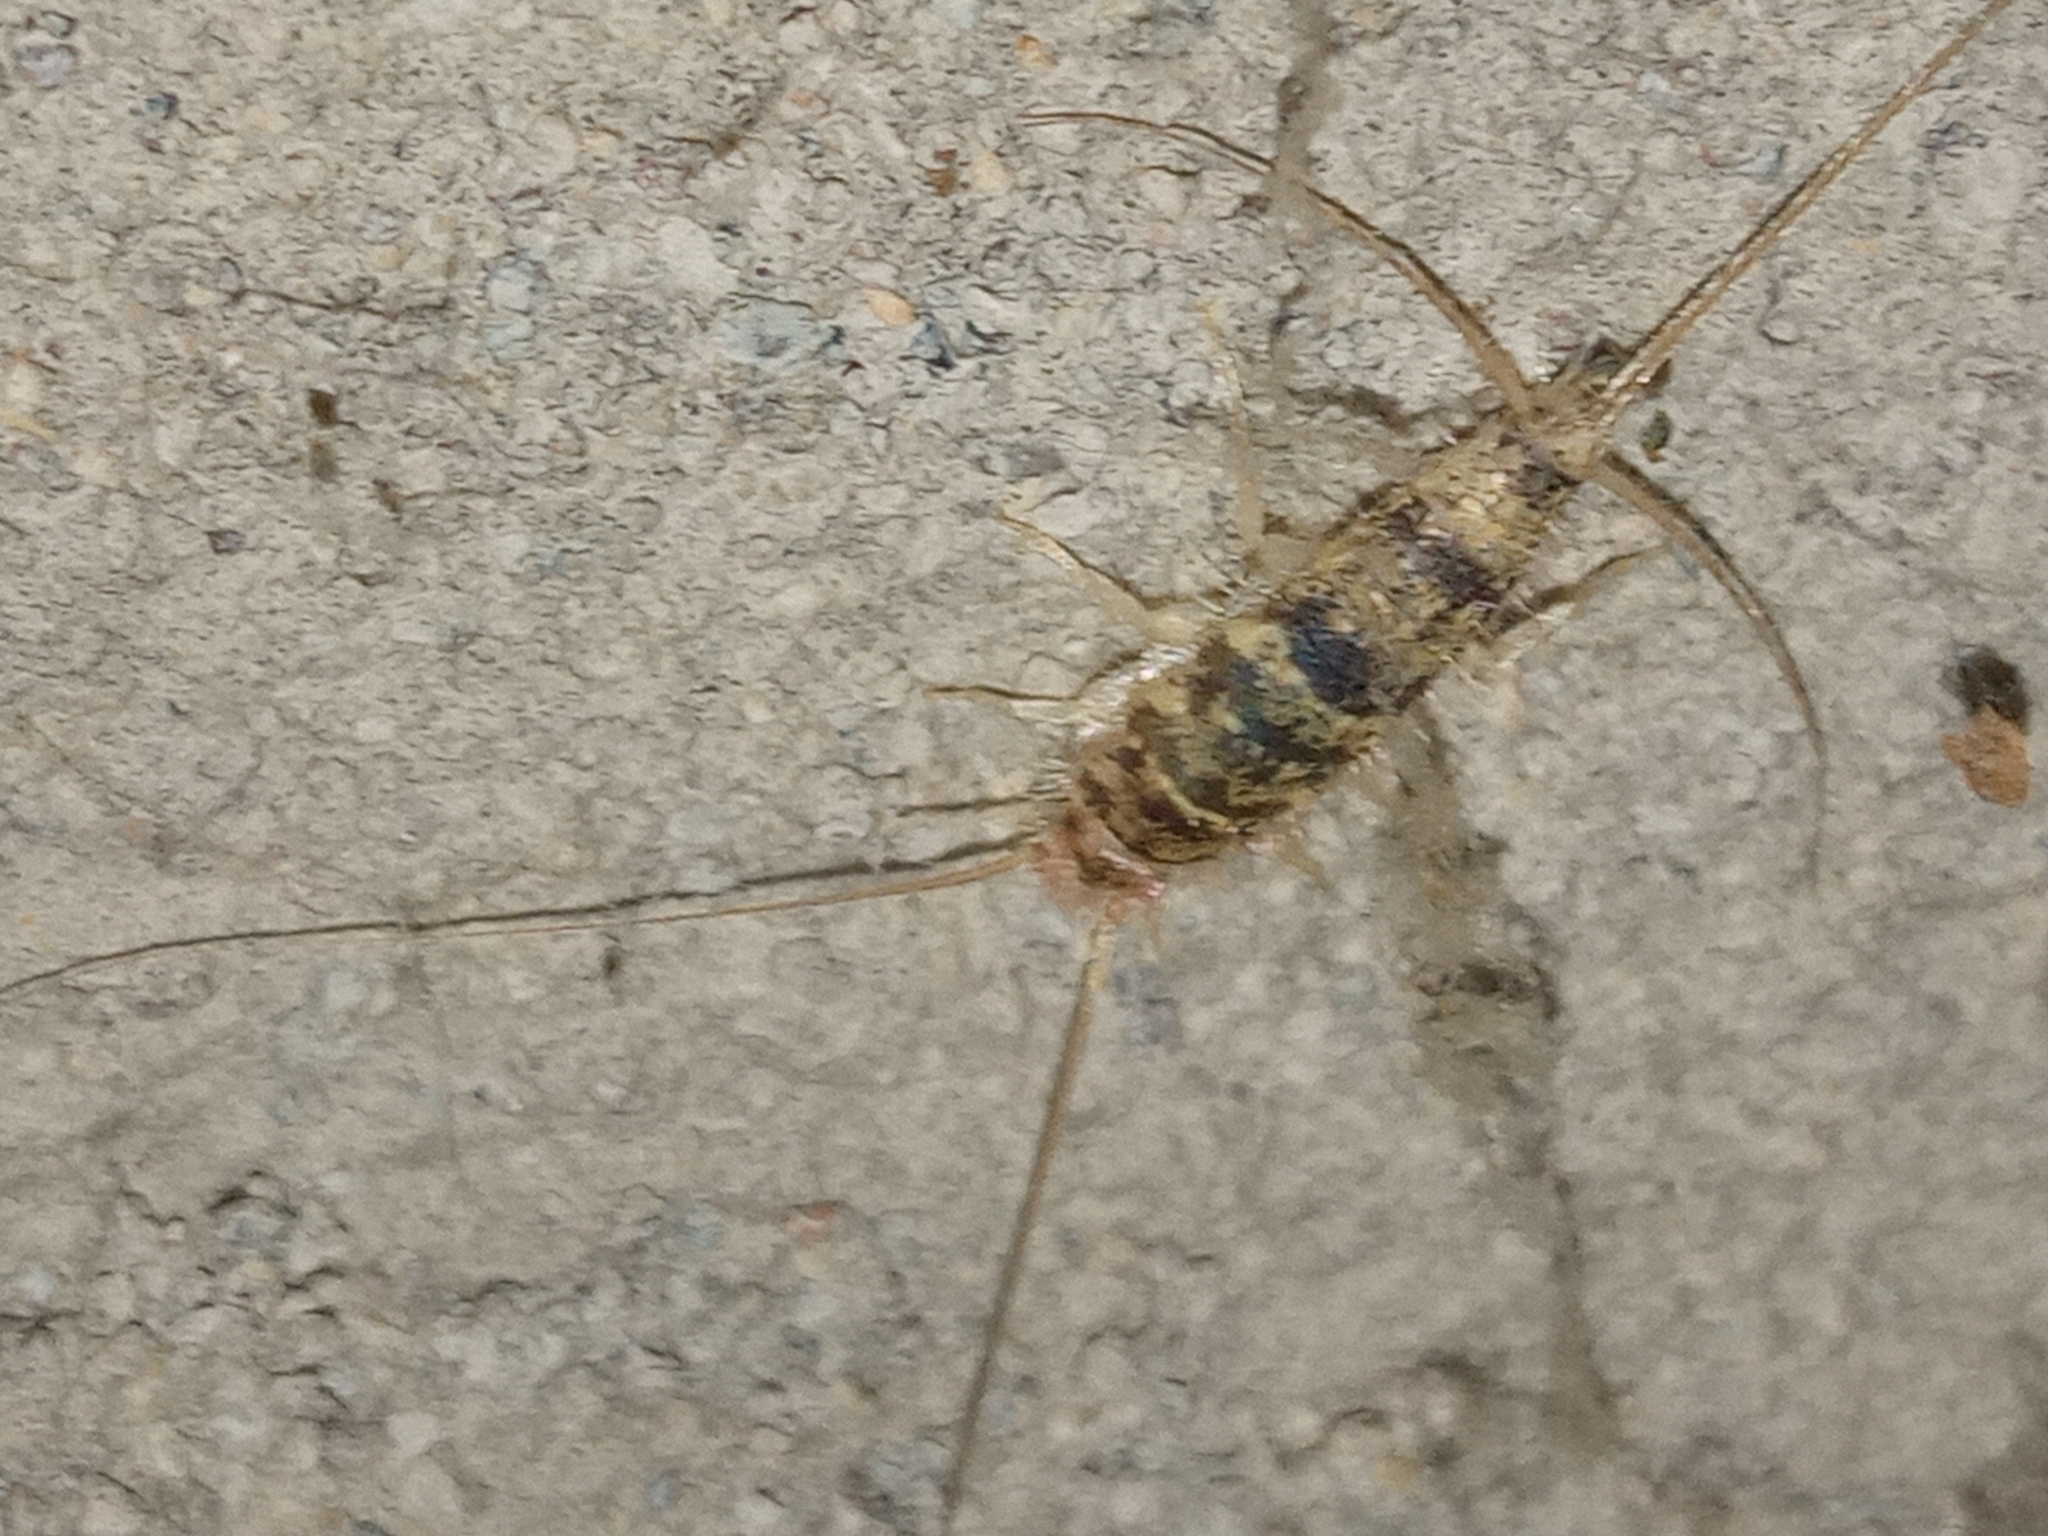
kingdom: Animalia
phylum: Arthropoda
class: Insecta
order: Zygentoma
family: Lepismatidae
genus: Thermobia
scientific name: Thermobia domestica
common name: Firebrat
